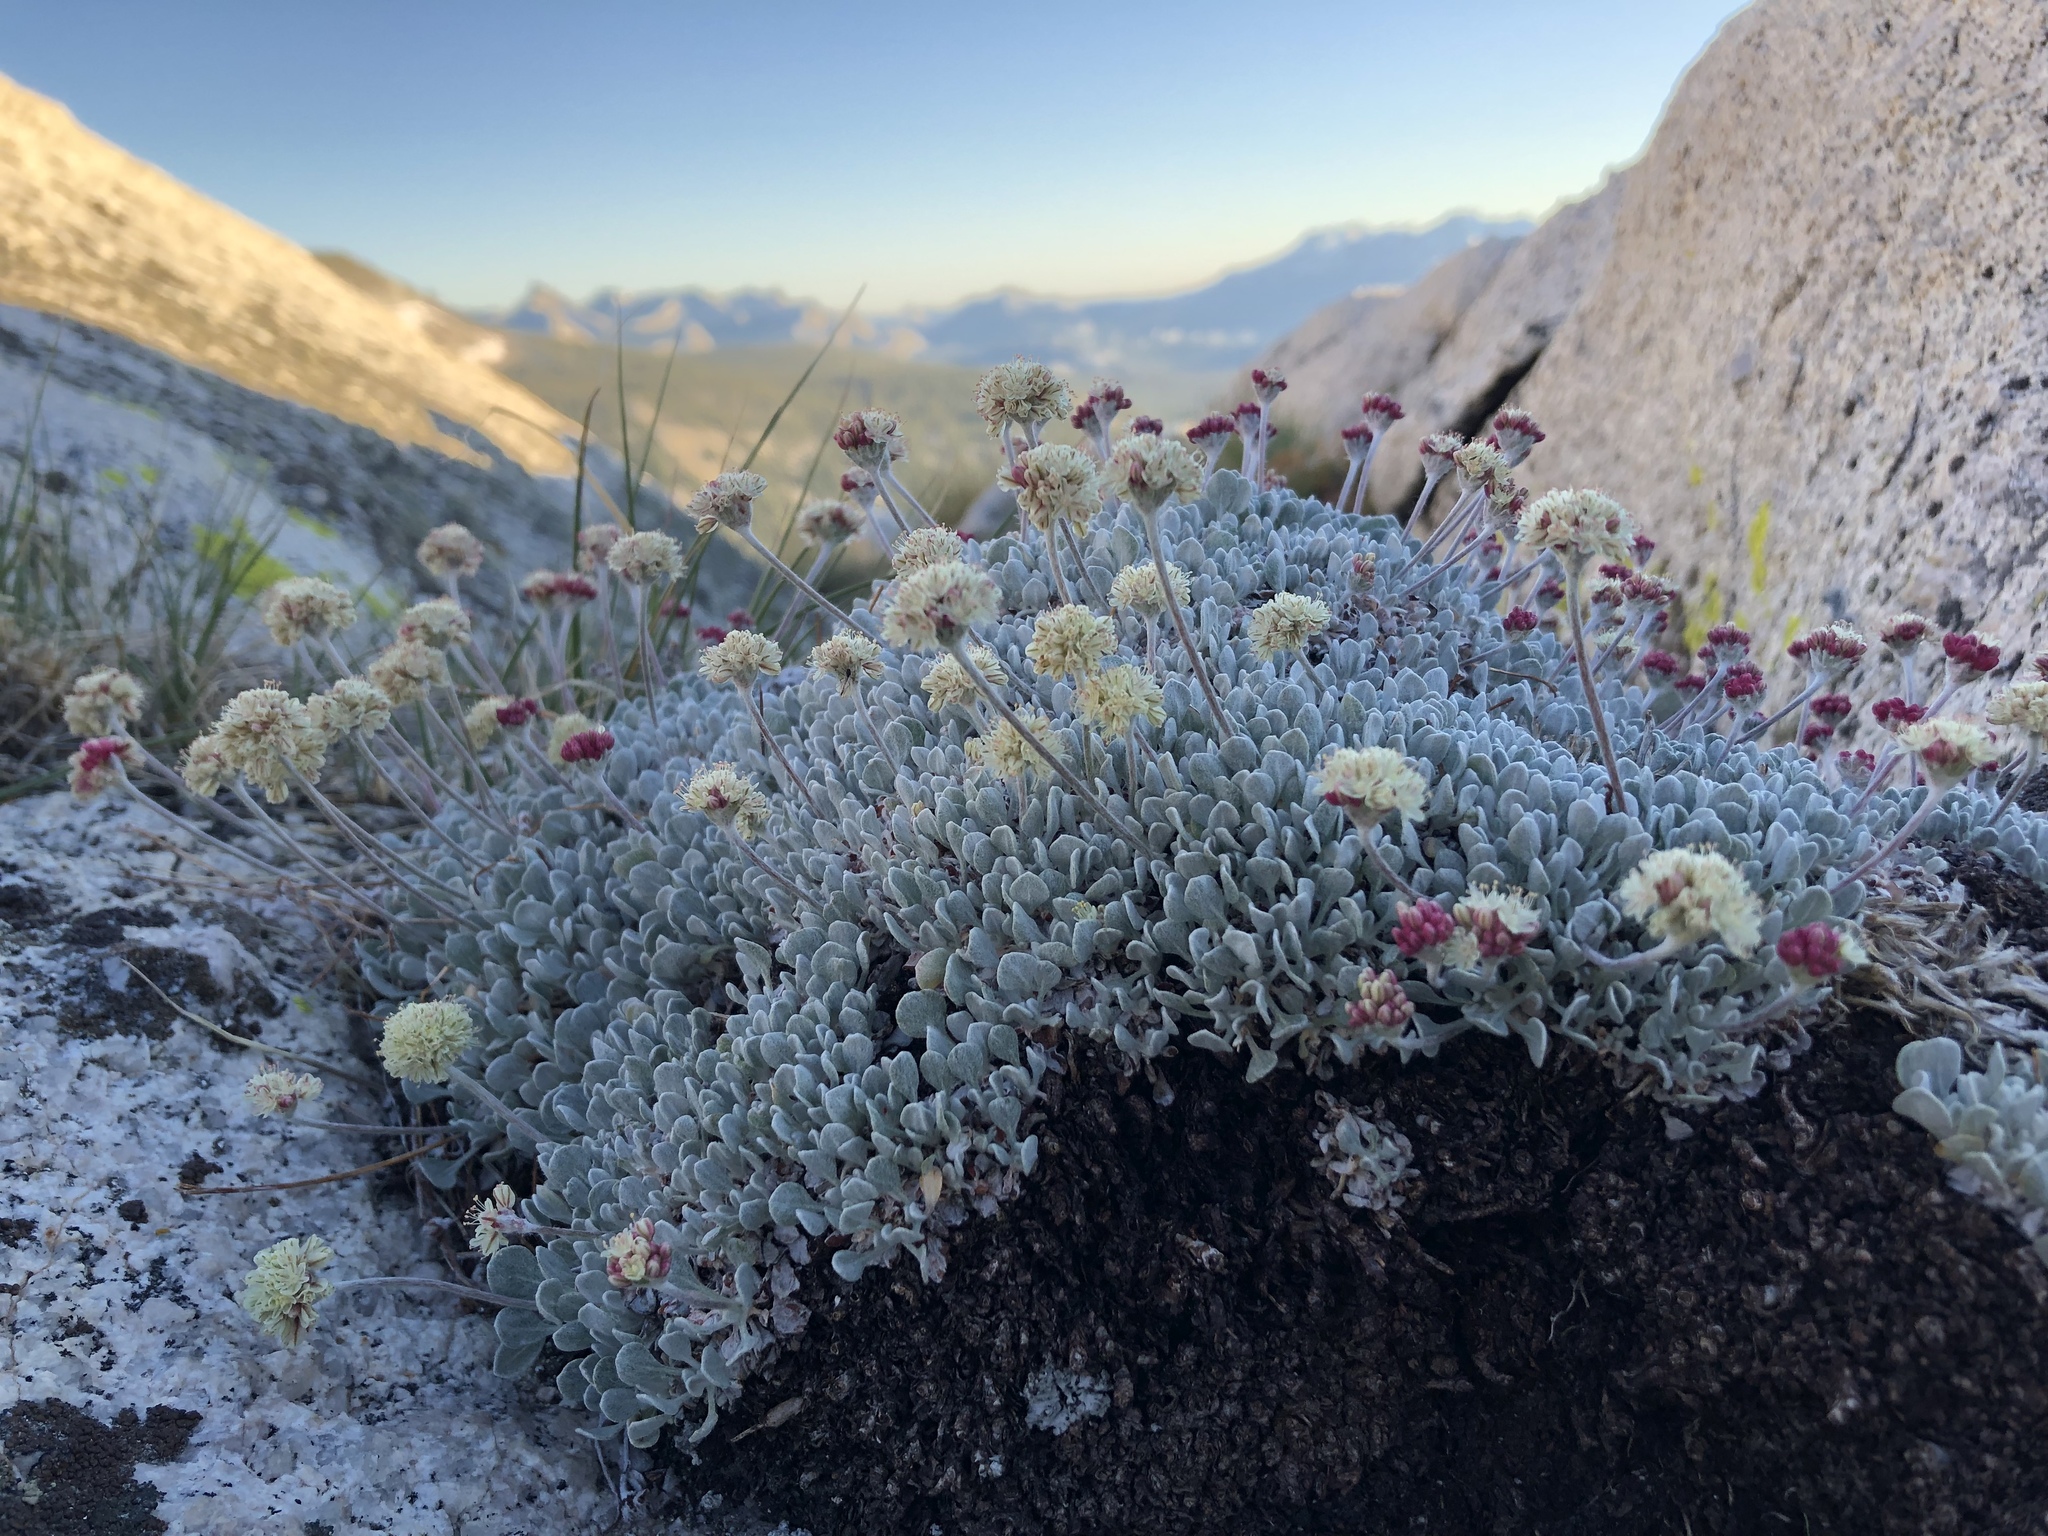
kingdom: Plantae
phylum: Tracheophyta
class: Magnoliopsida
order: Caryophyllales
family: Polygonaceae
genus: Eriogonum
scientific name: Eriogonum ovalifolium
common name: Cushion buckwheat
